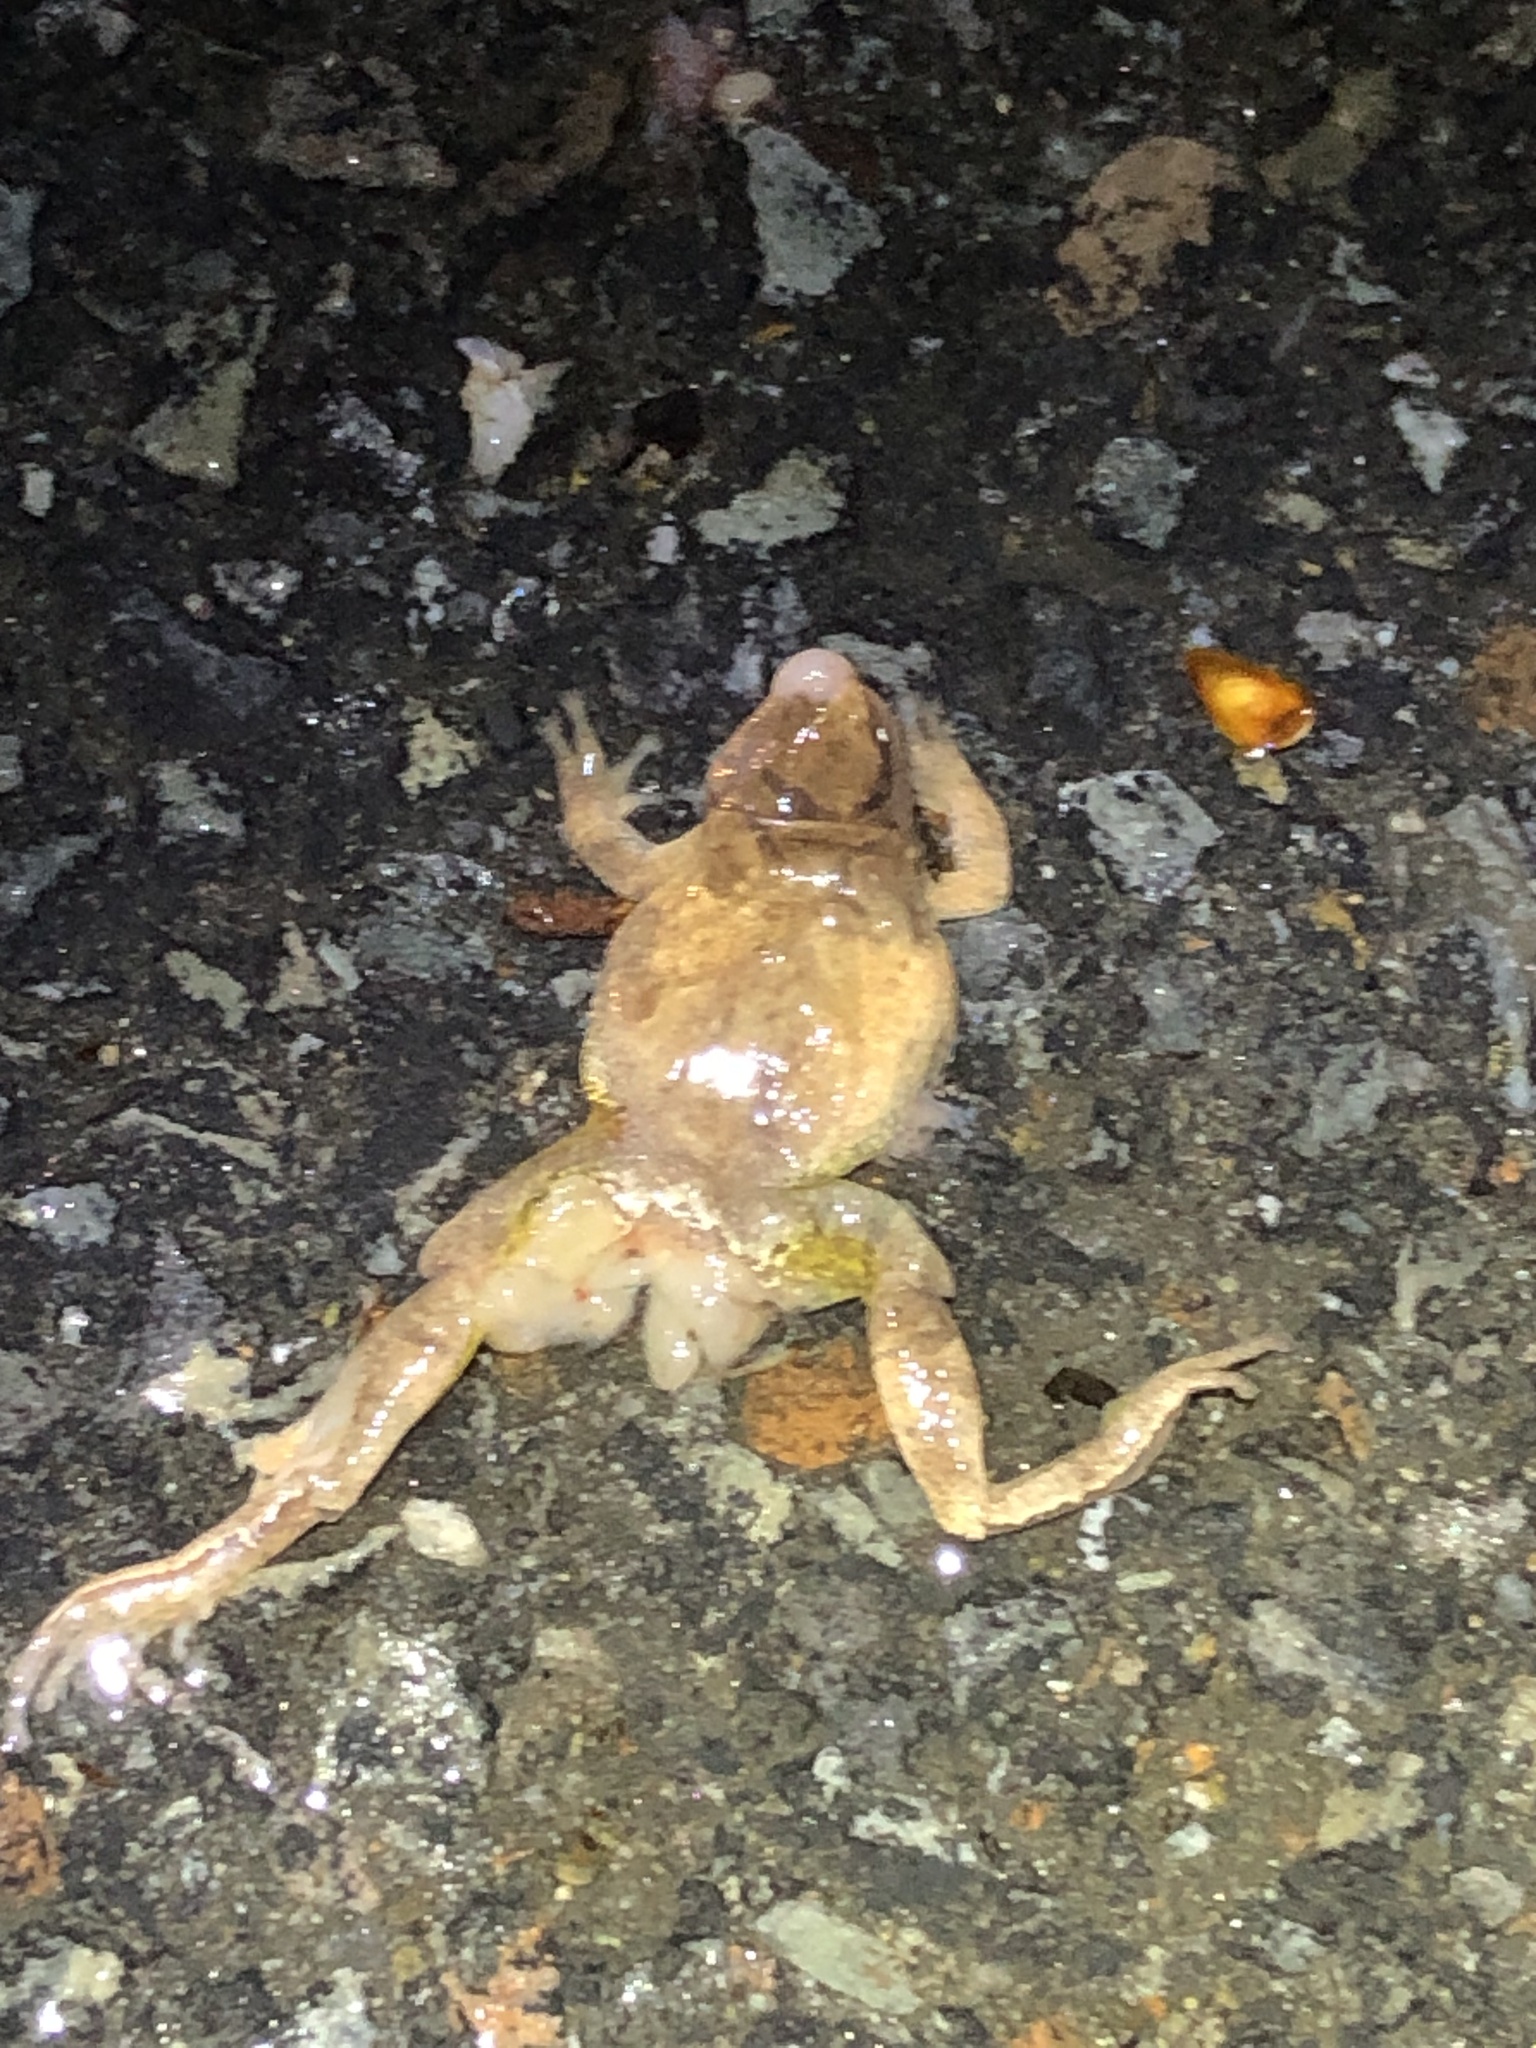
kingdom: Animalia
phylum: Chordata
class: Amphibia
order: Anura
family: Hylidae
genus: Pseudacris
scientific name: Pseudacris crucifer
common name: Spring peeper
